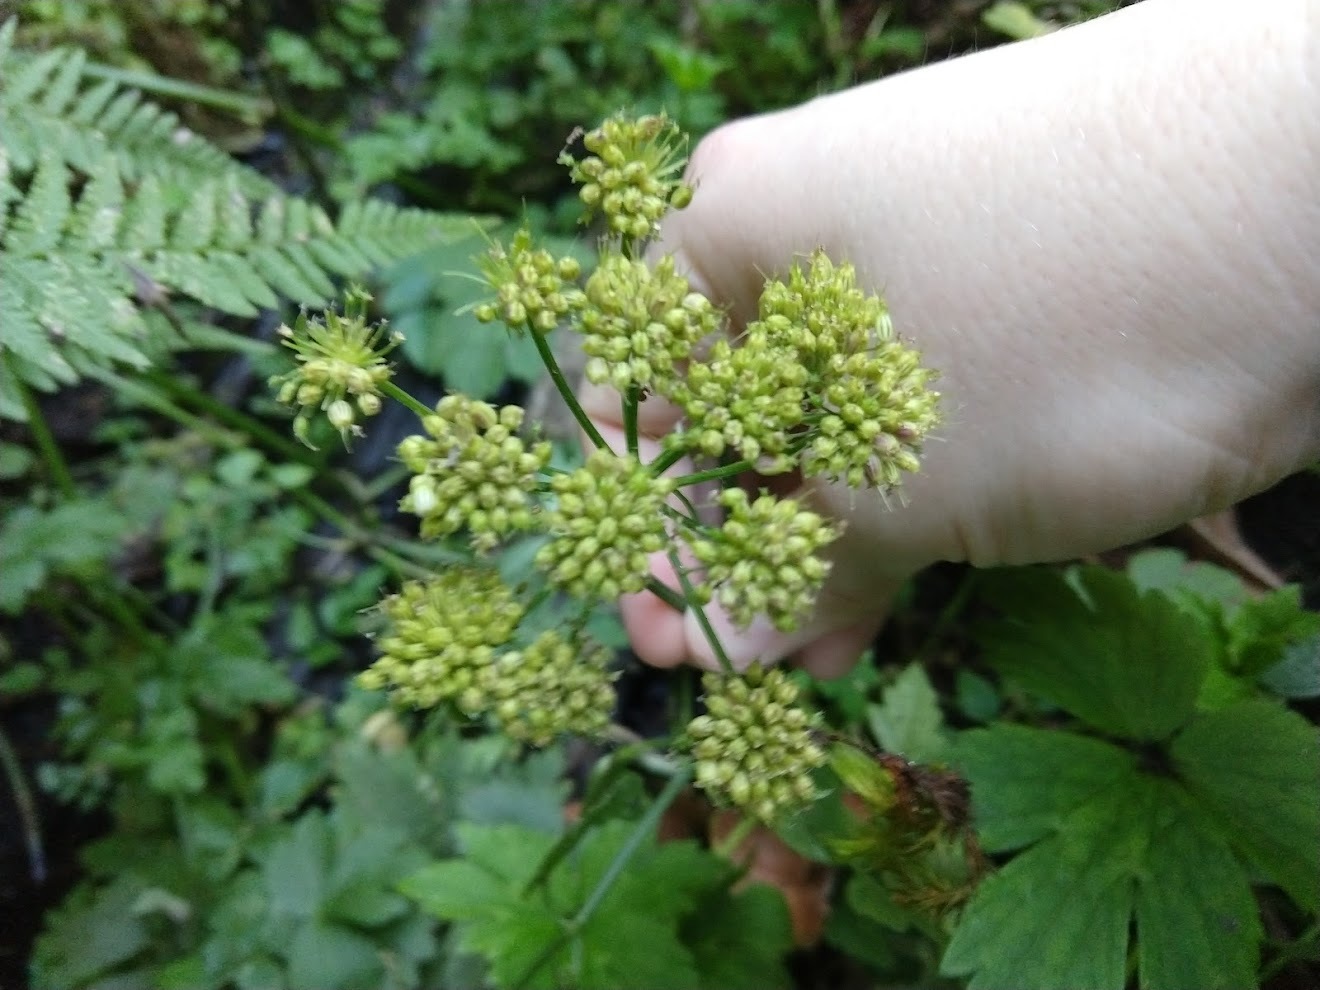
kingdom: Plantae
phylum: Tracheophyta
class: Magnoliopsida
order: Apiales
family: Apiaceae
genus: Oenanthe
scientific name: Oenanthe sarmentosa
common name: American water-parsley
